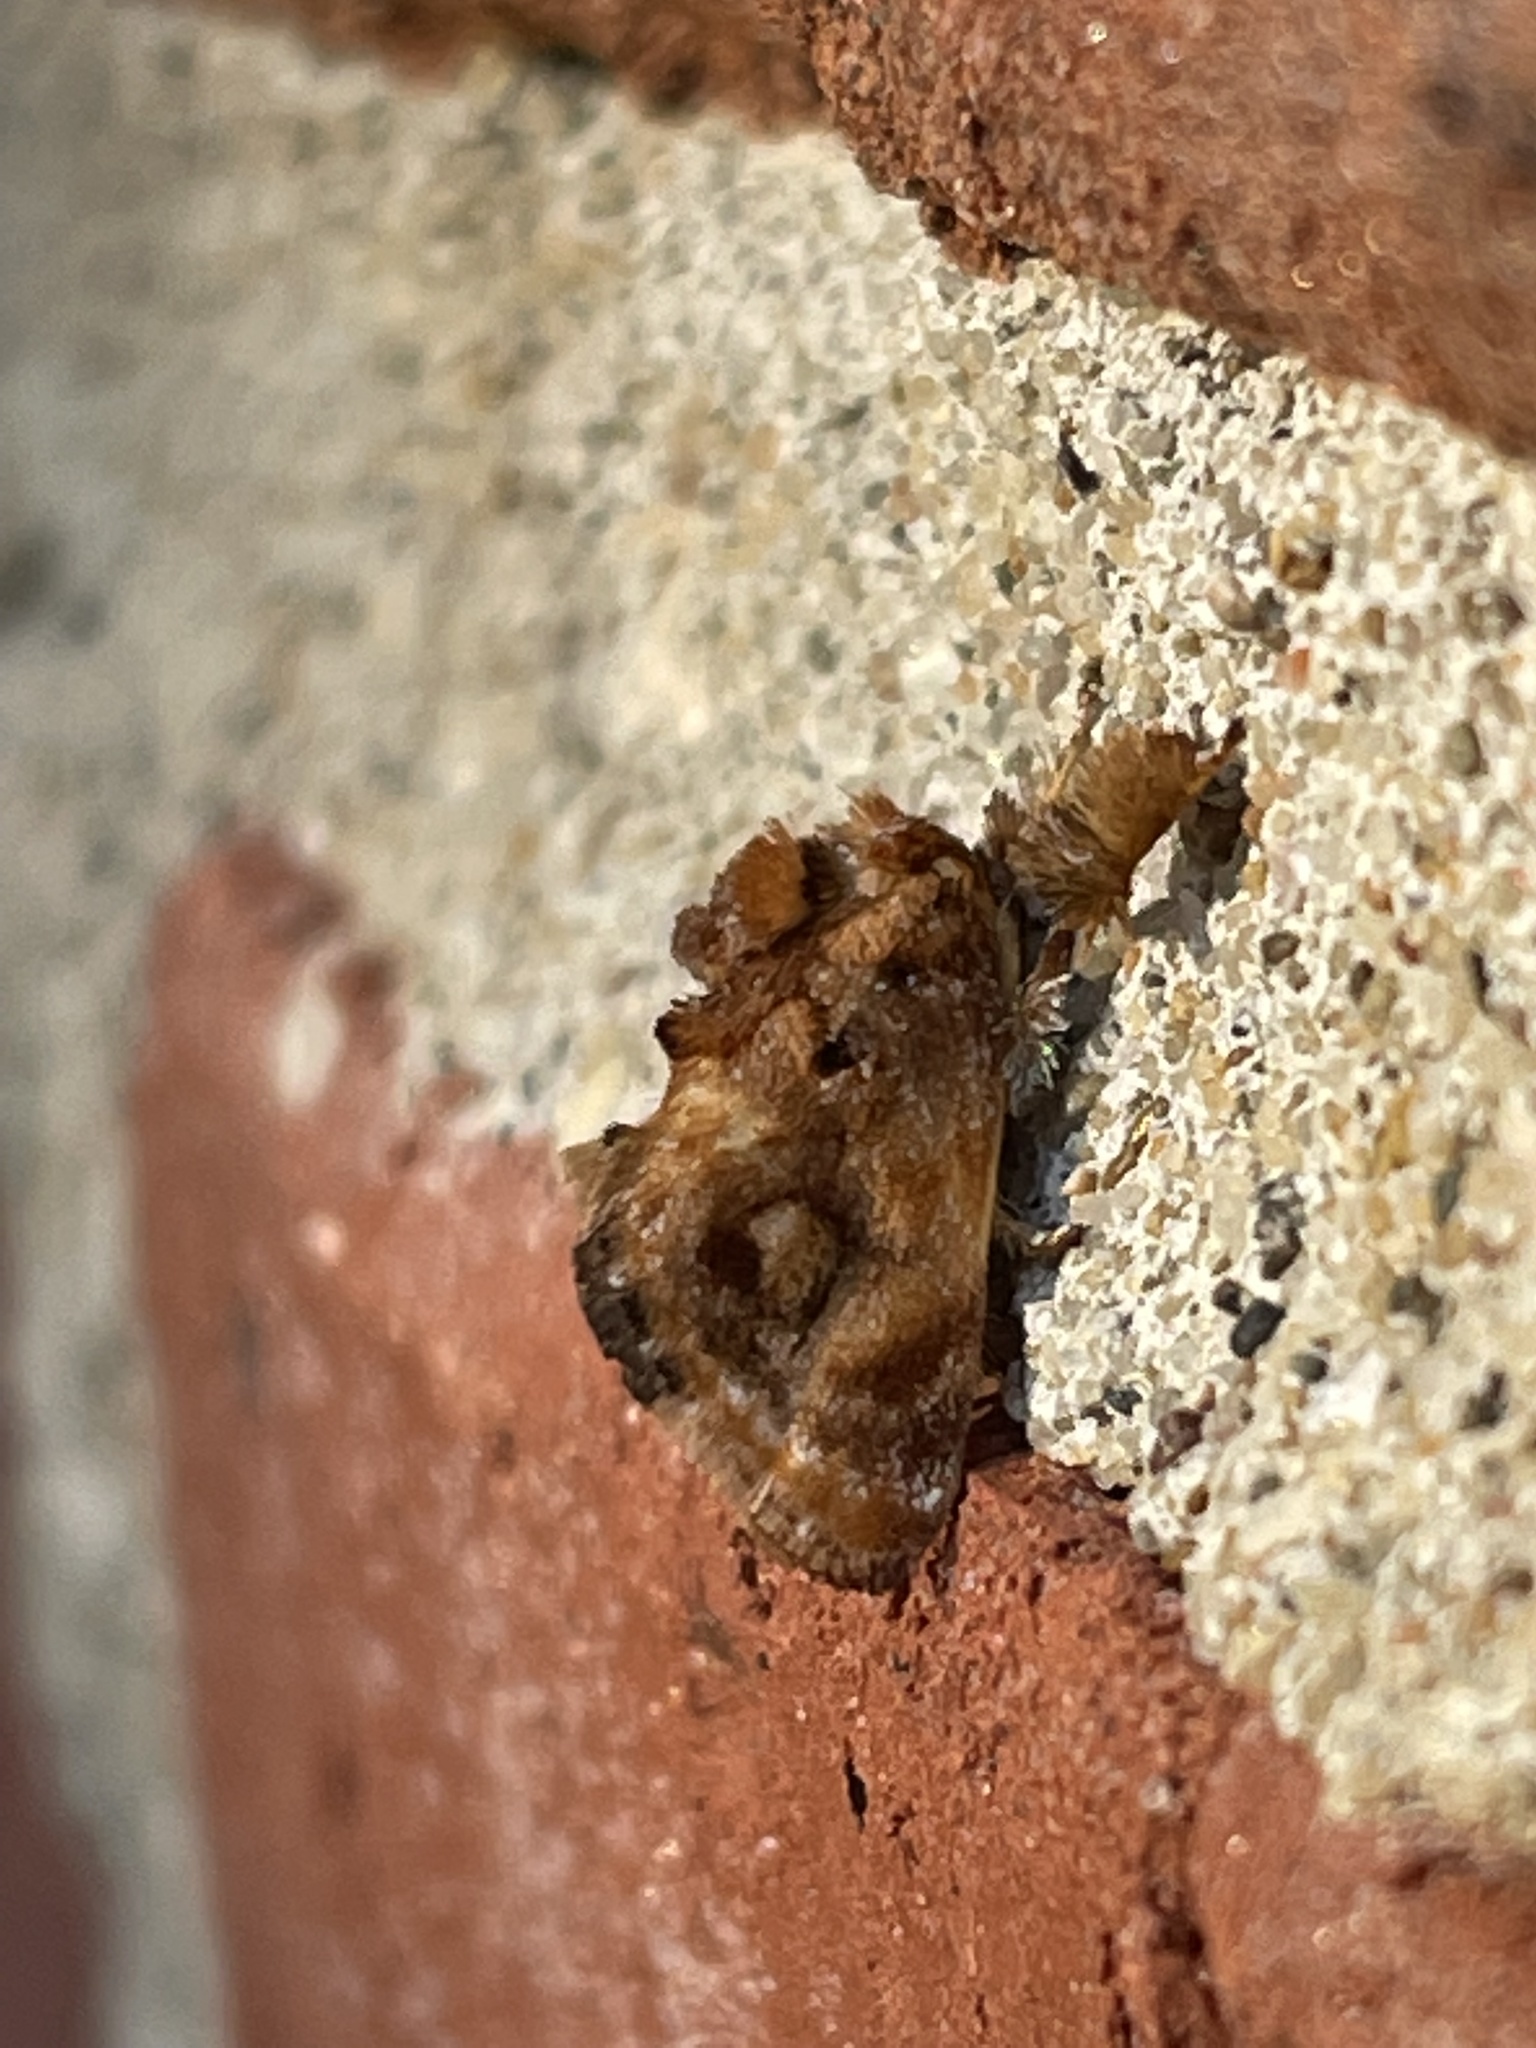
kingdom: Animalia
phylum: Arthropoda
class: Insecta
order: Lepidoptera
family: Limacodidae
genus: Isochaetes
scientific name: Isochaetes beutenmuelleri
